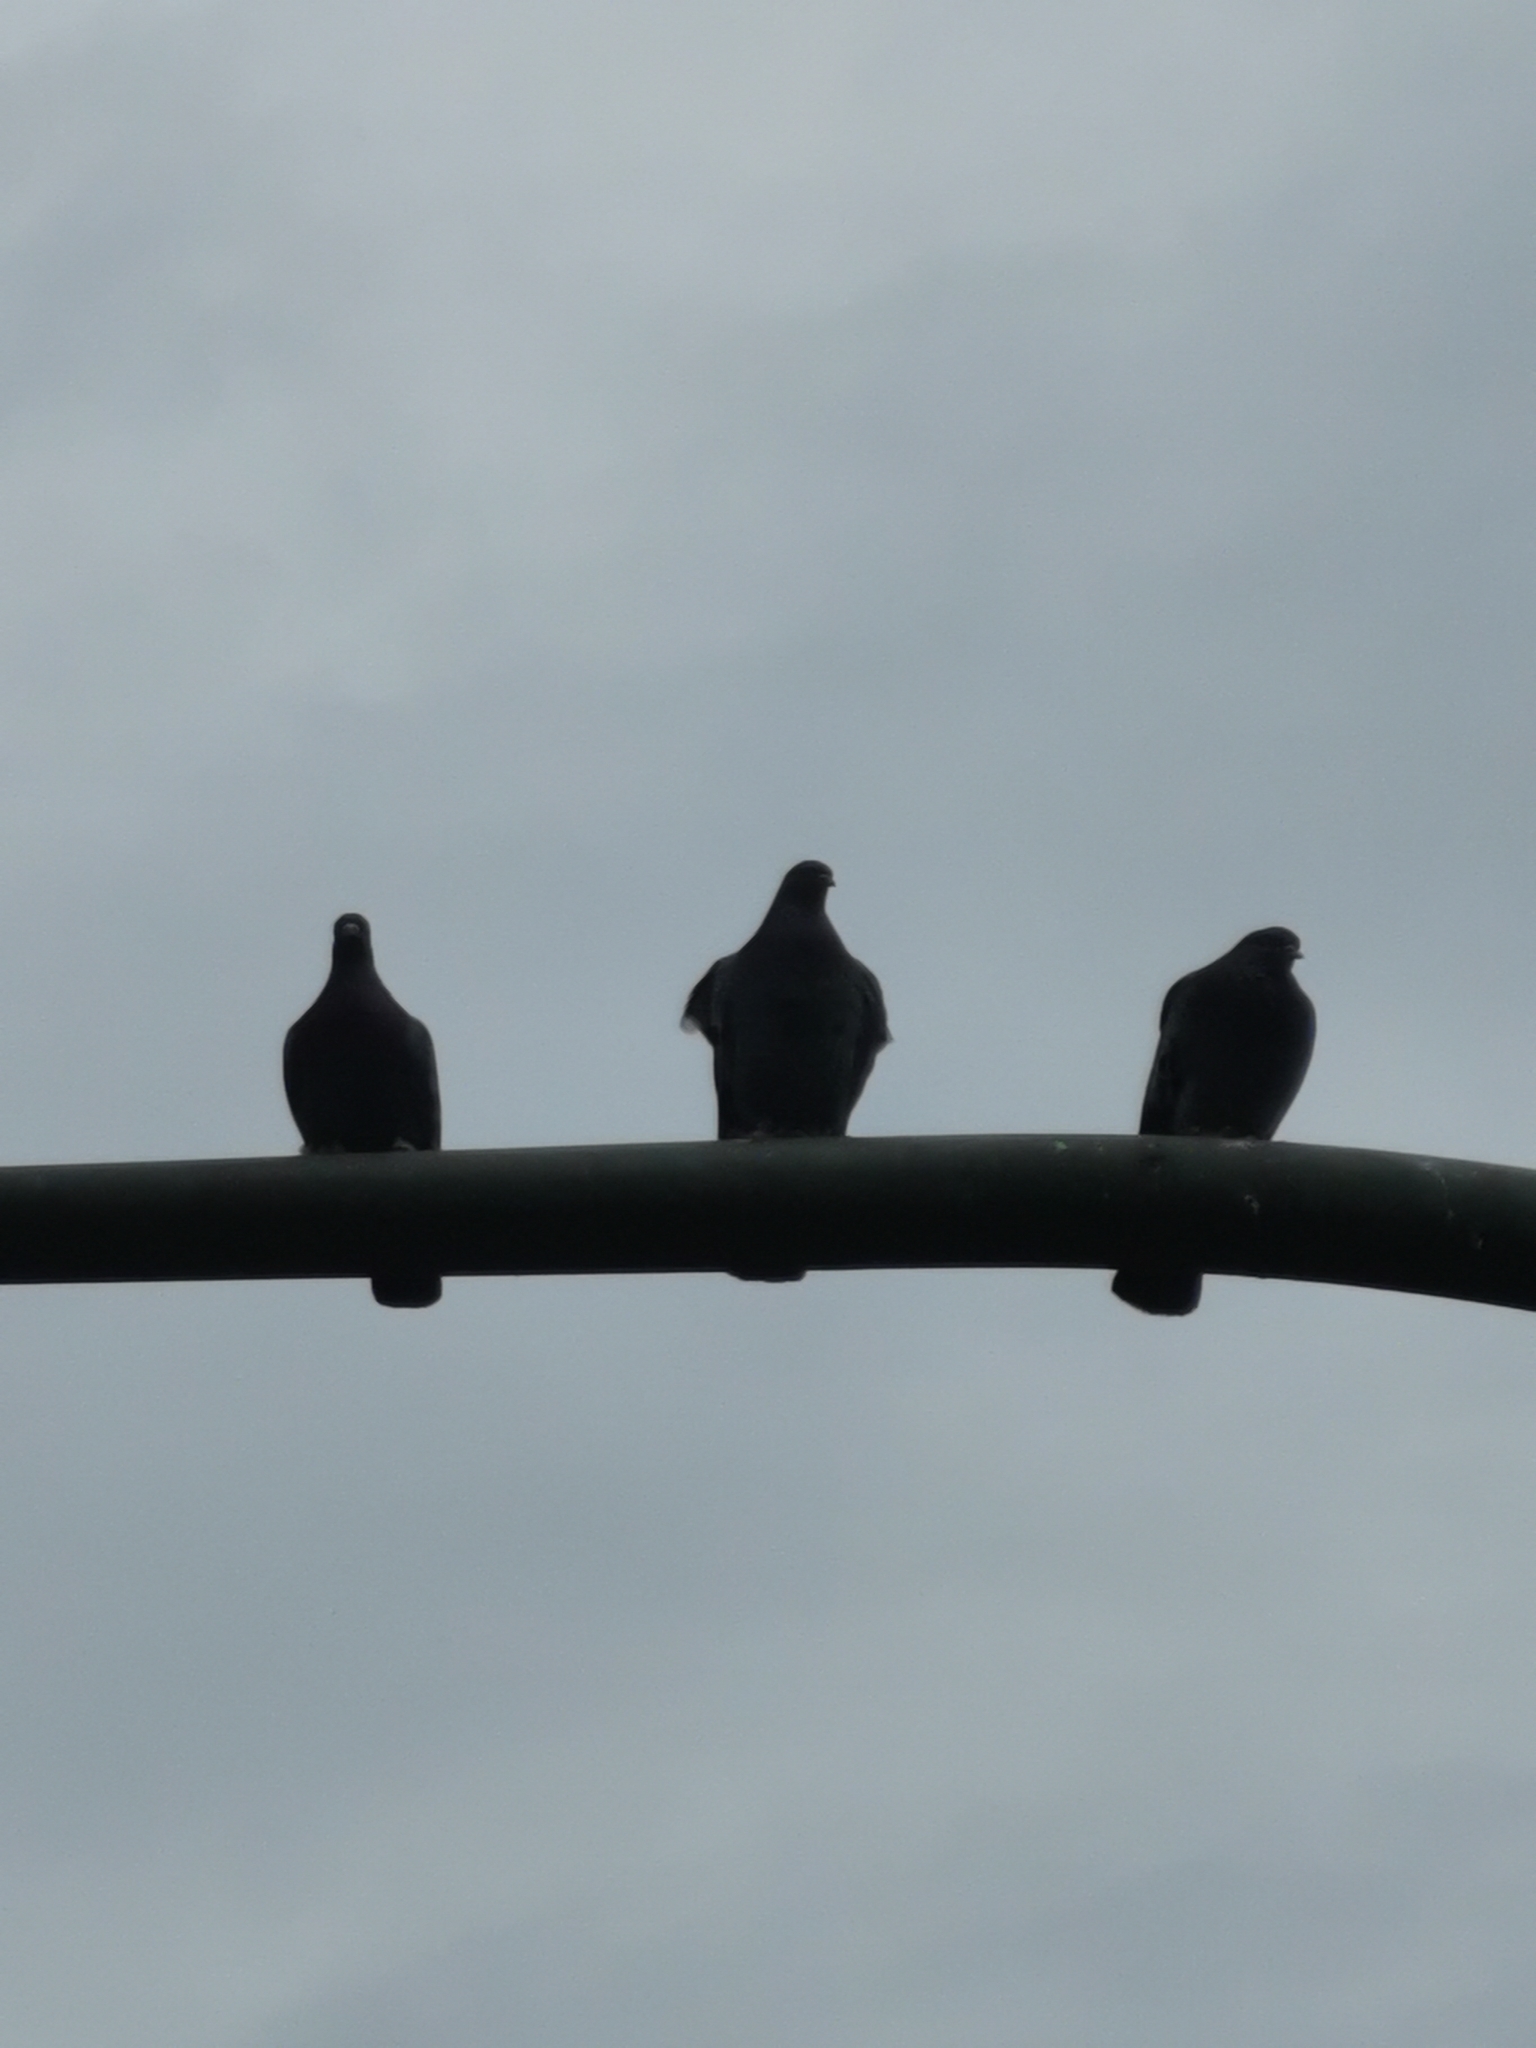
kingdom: Animalia
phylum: Chordata
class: Aves
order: Columbiformes
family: Columbidae
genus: Columba
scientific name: Columba livia
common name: Rock pigeon
